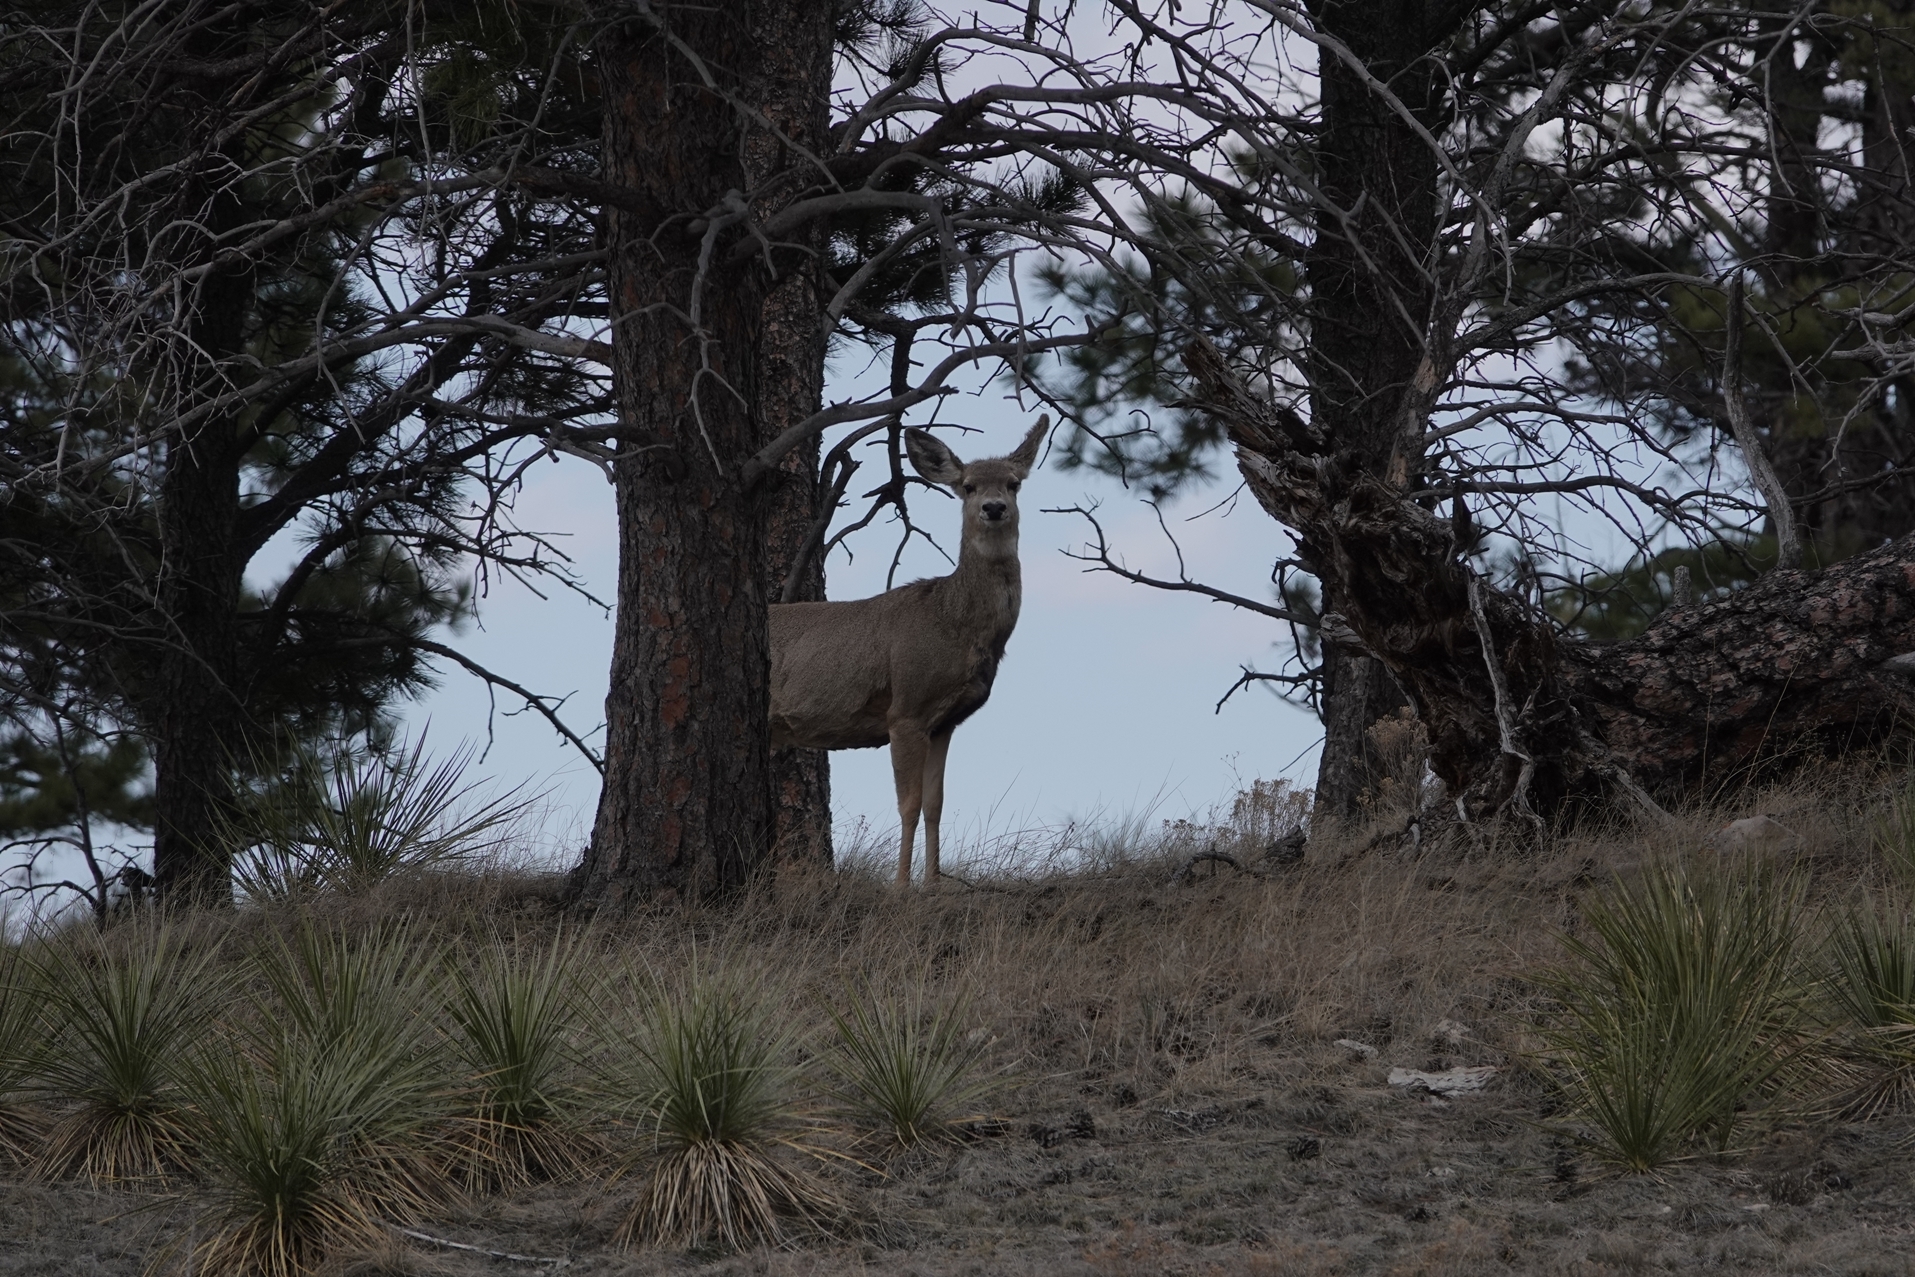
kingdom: Animalia
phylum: Chordata
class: Mammalia
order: Artiodactyla
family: Cervidae
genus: Odocoileus
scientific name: Odocoileus hemionus
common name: Mule deer
